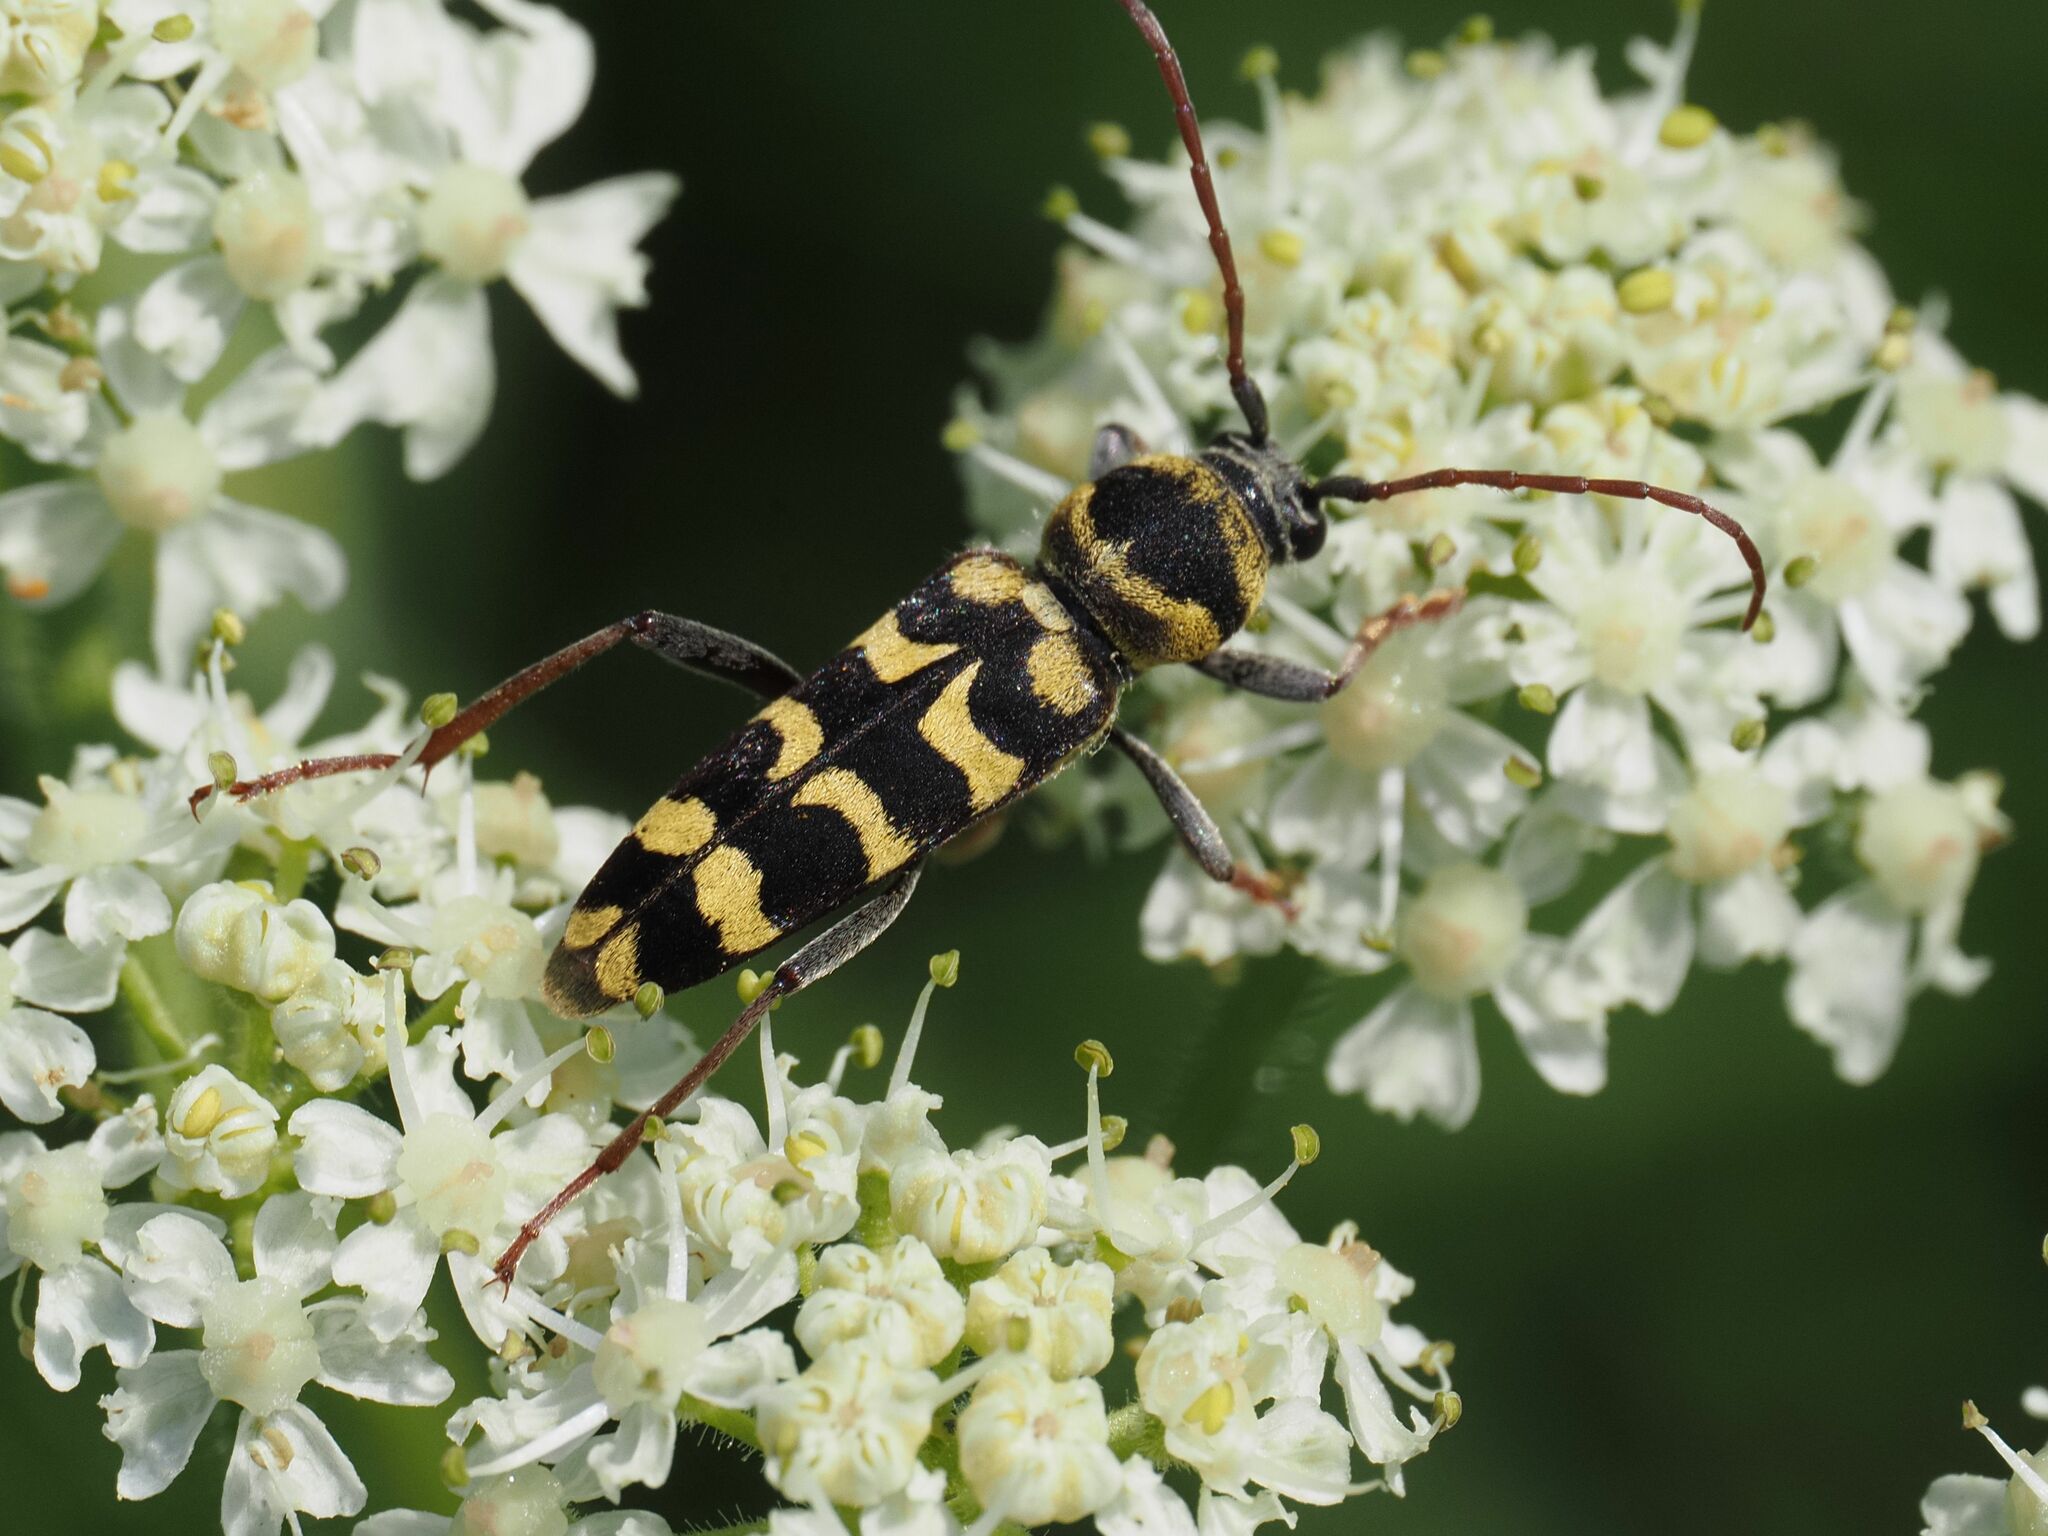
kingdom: Animalia
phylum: Arthropoda
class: Insecta
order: Coleoptera
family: Cerambycidae
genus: Plagionotus
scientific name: Plagionotus floralis
